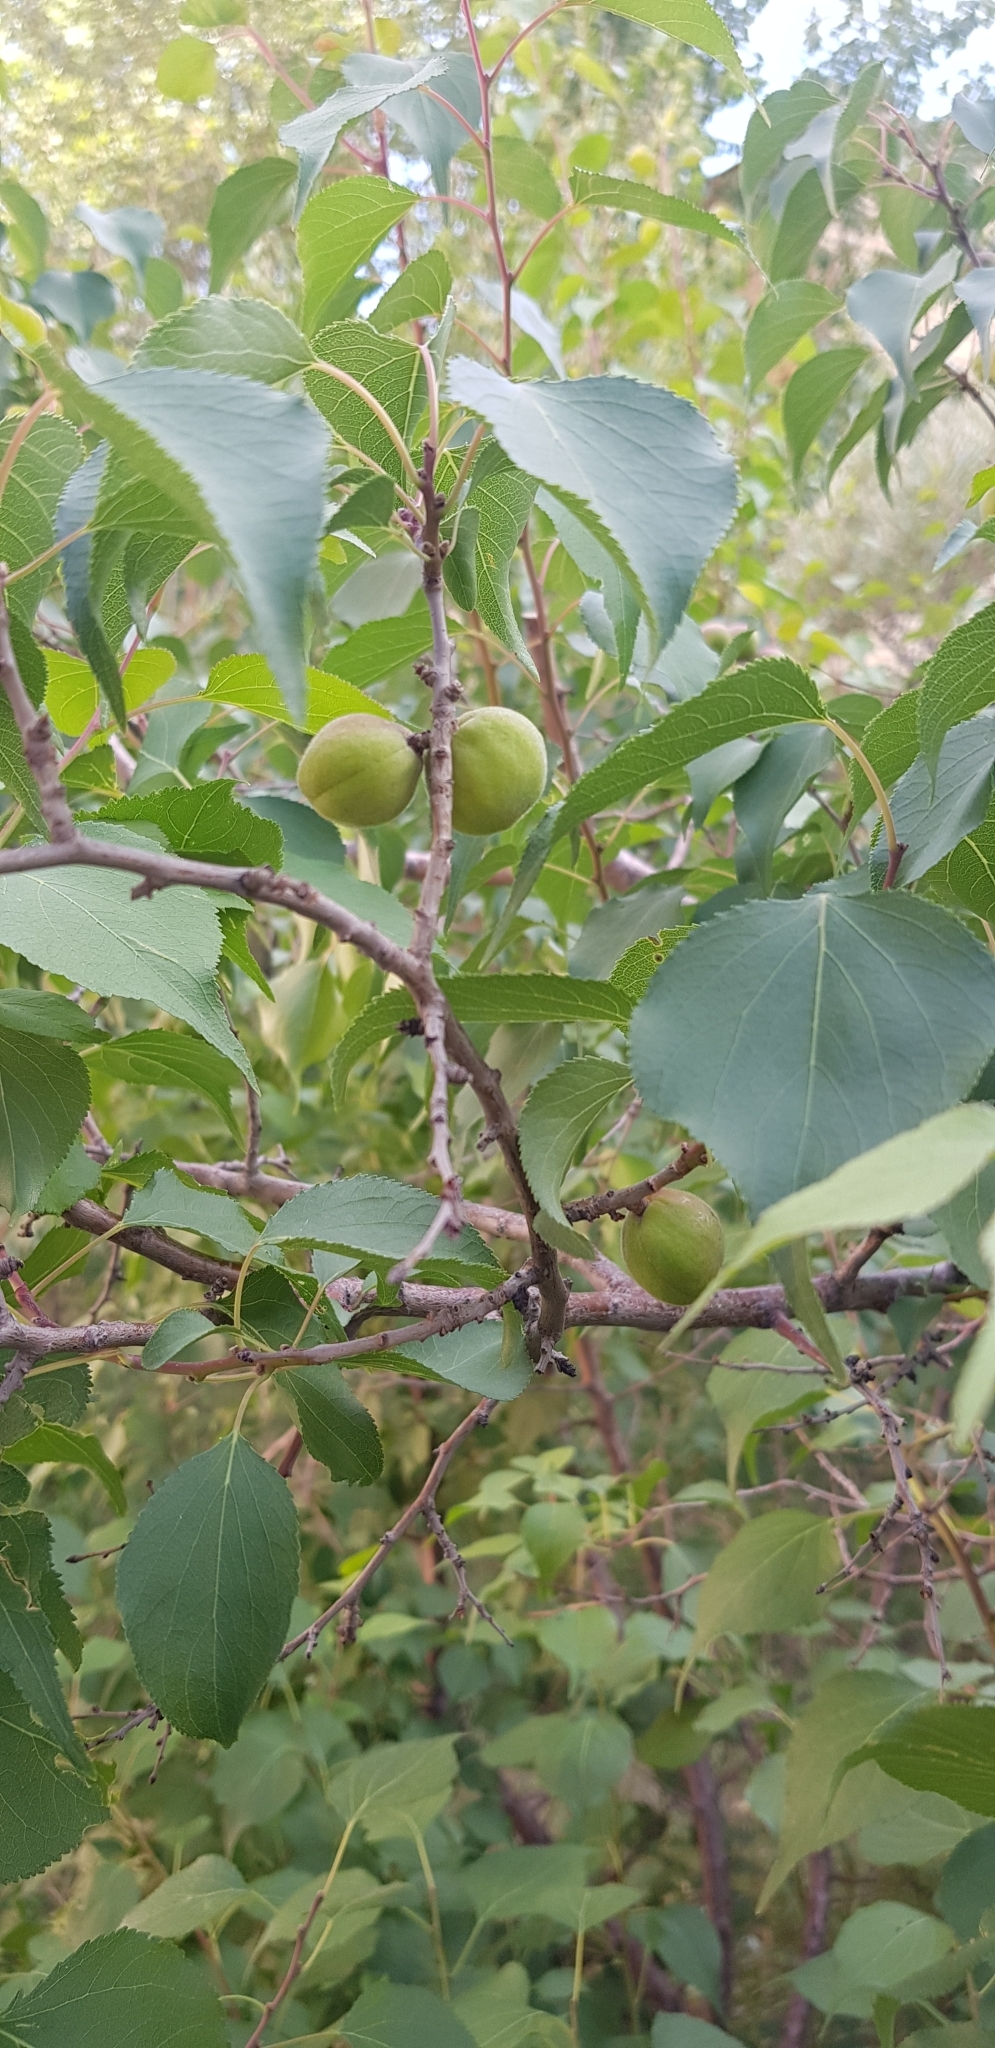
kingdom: Plantae
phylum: Tracheophyta
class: Magnoliopsida
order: Rosales
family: Rosaceae
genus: Prunus
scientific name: Prunus armeniaca
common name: Apricot
